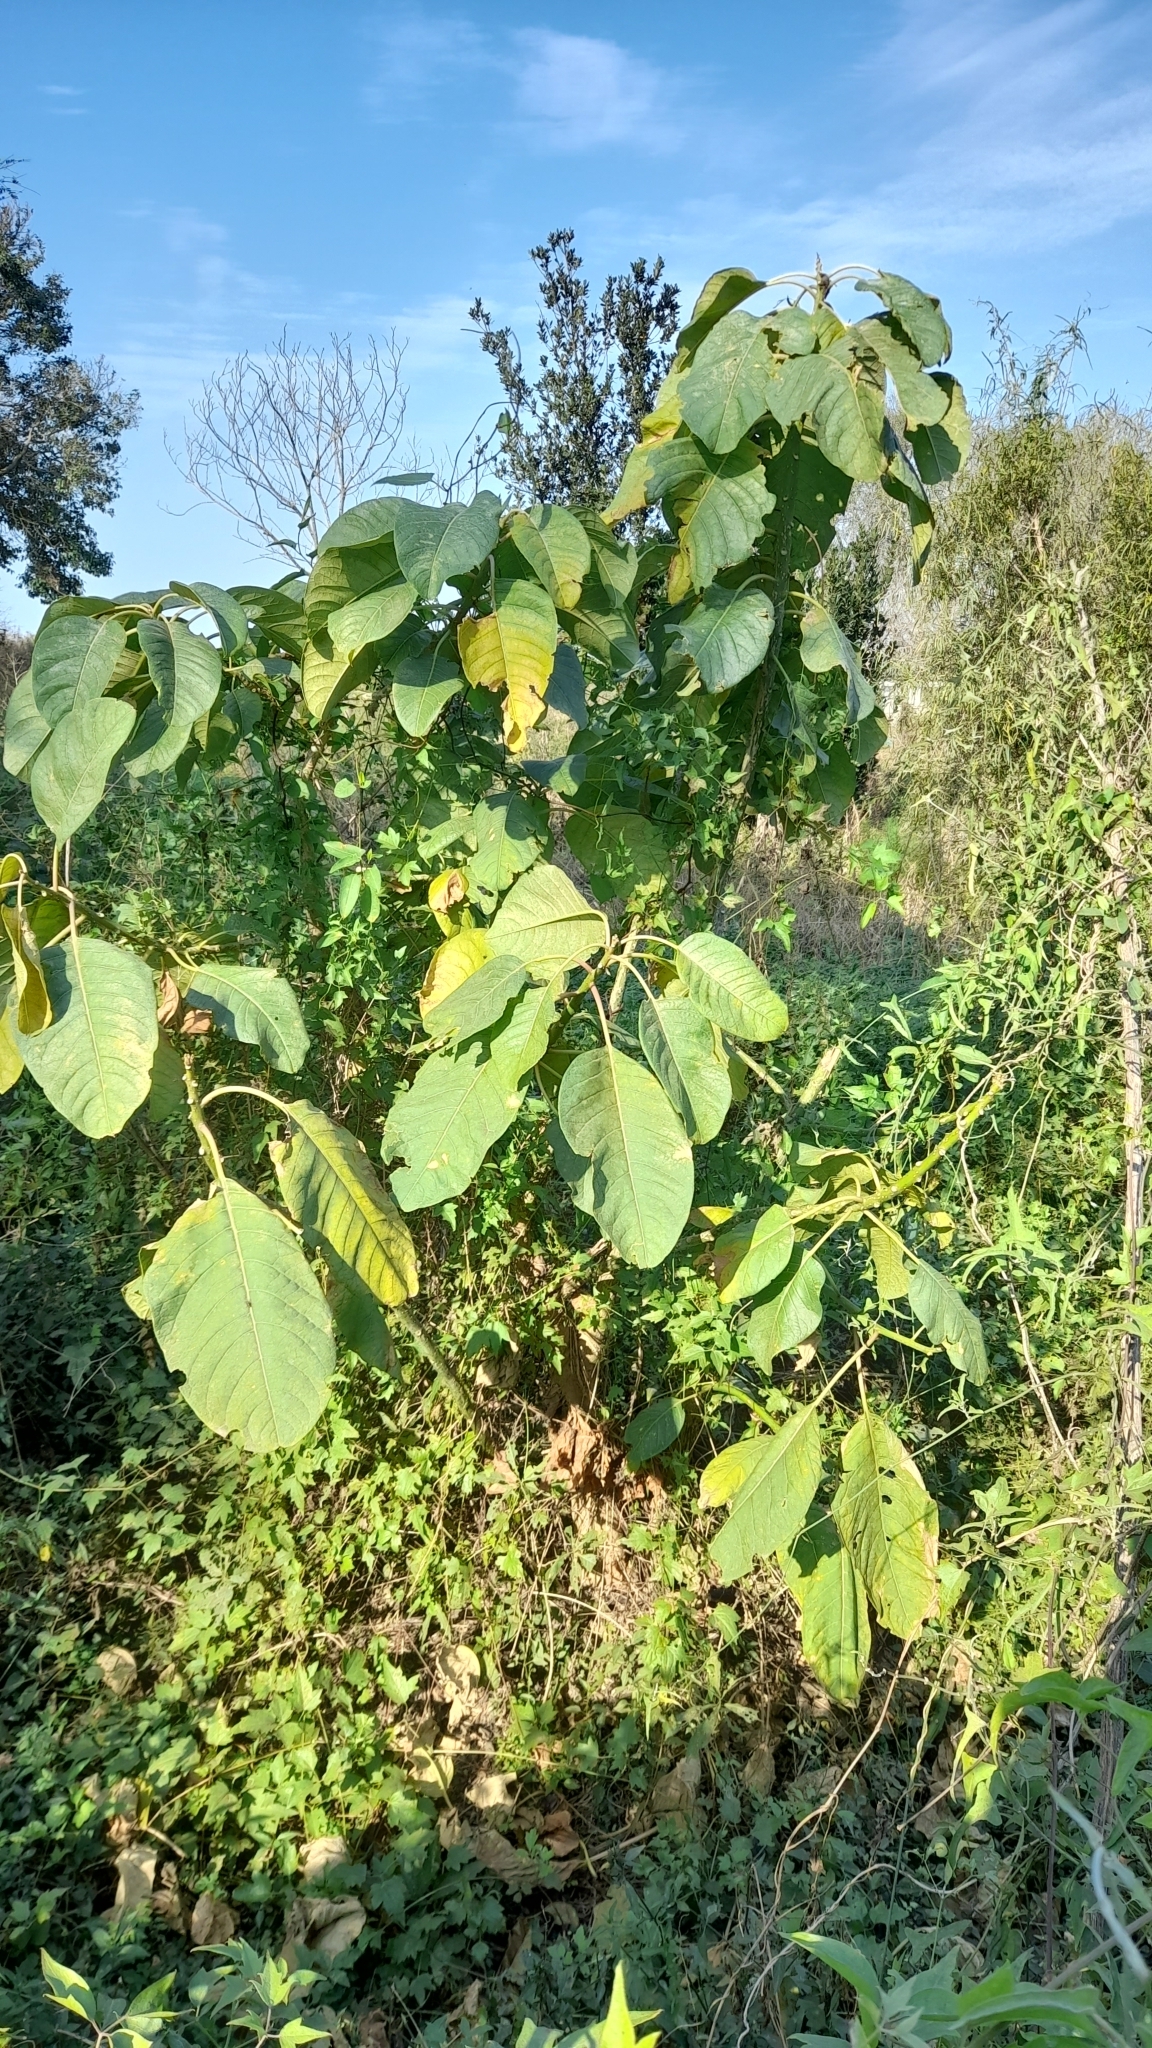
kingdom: Plantae
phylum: Tracheophyta
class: Magnoliopsida
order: Caryophyllales
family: Phytolaccaceae
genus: Phytolacca
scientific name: Phytolacca dioica
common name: Pokeweed
